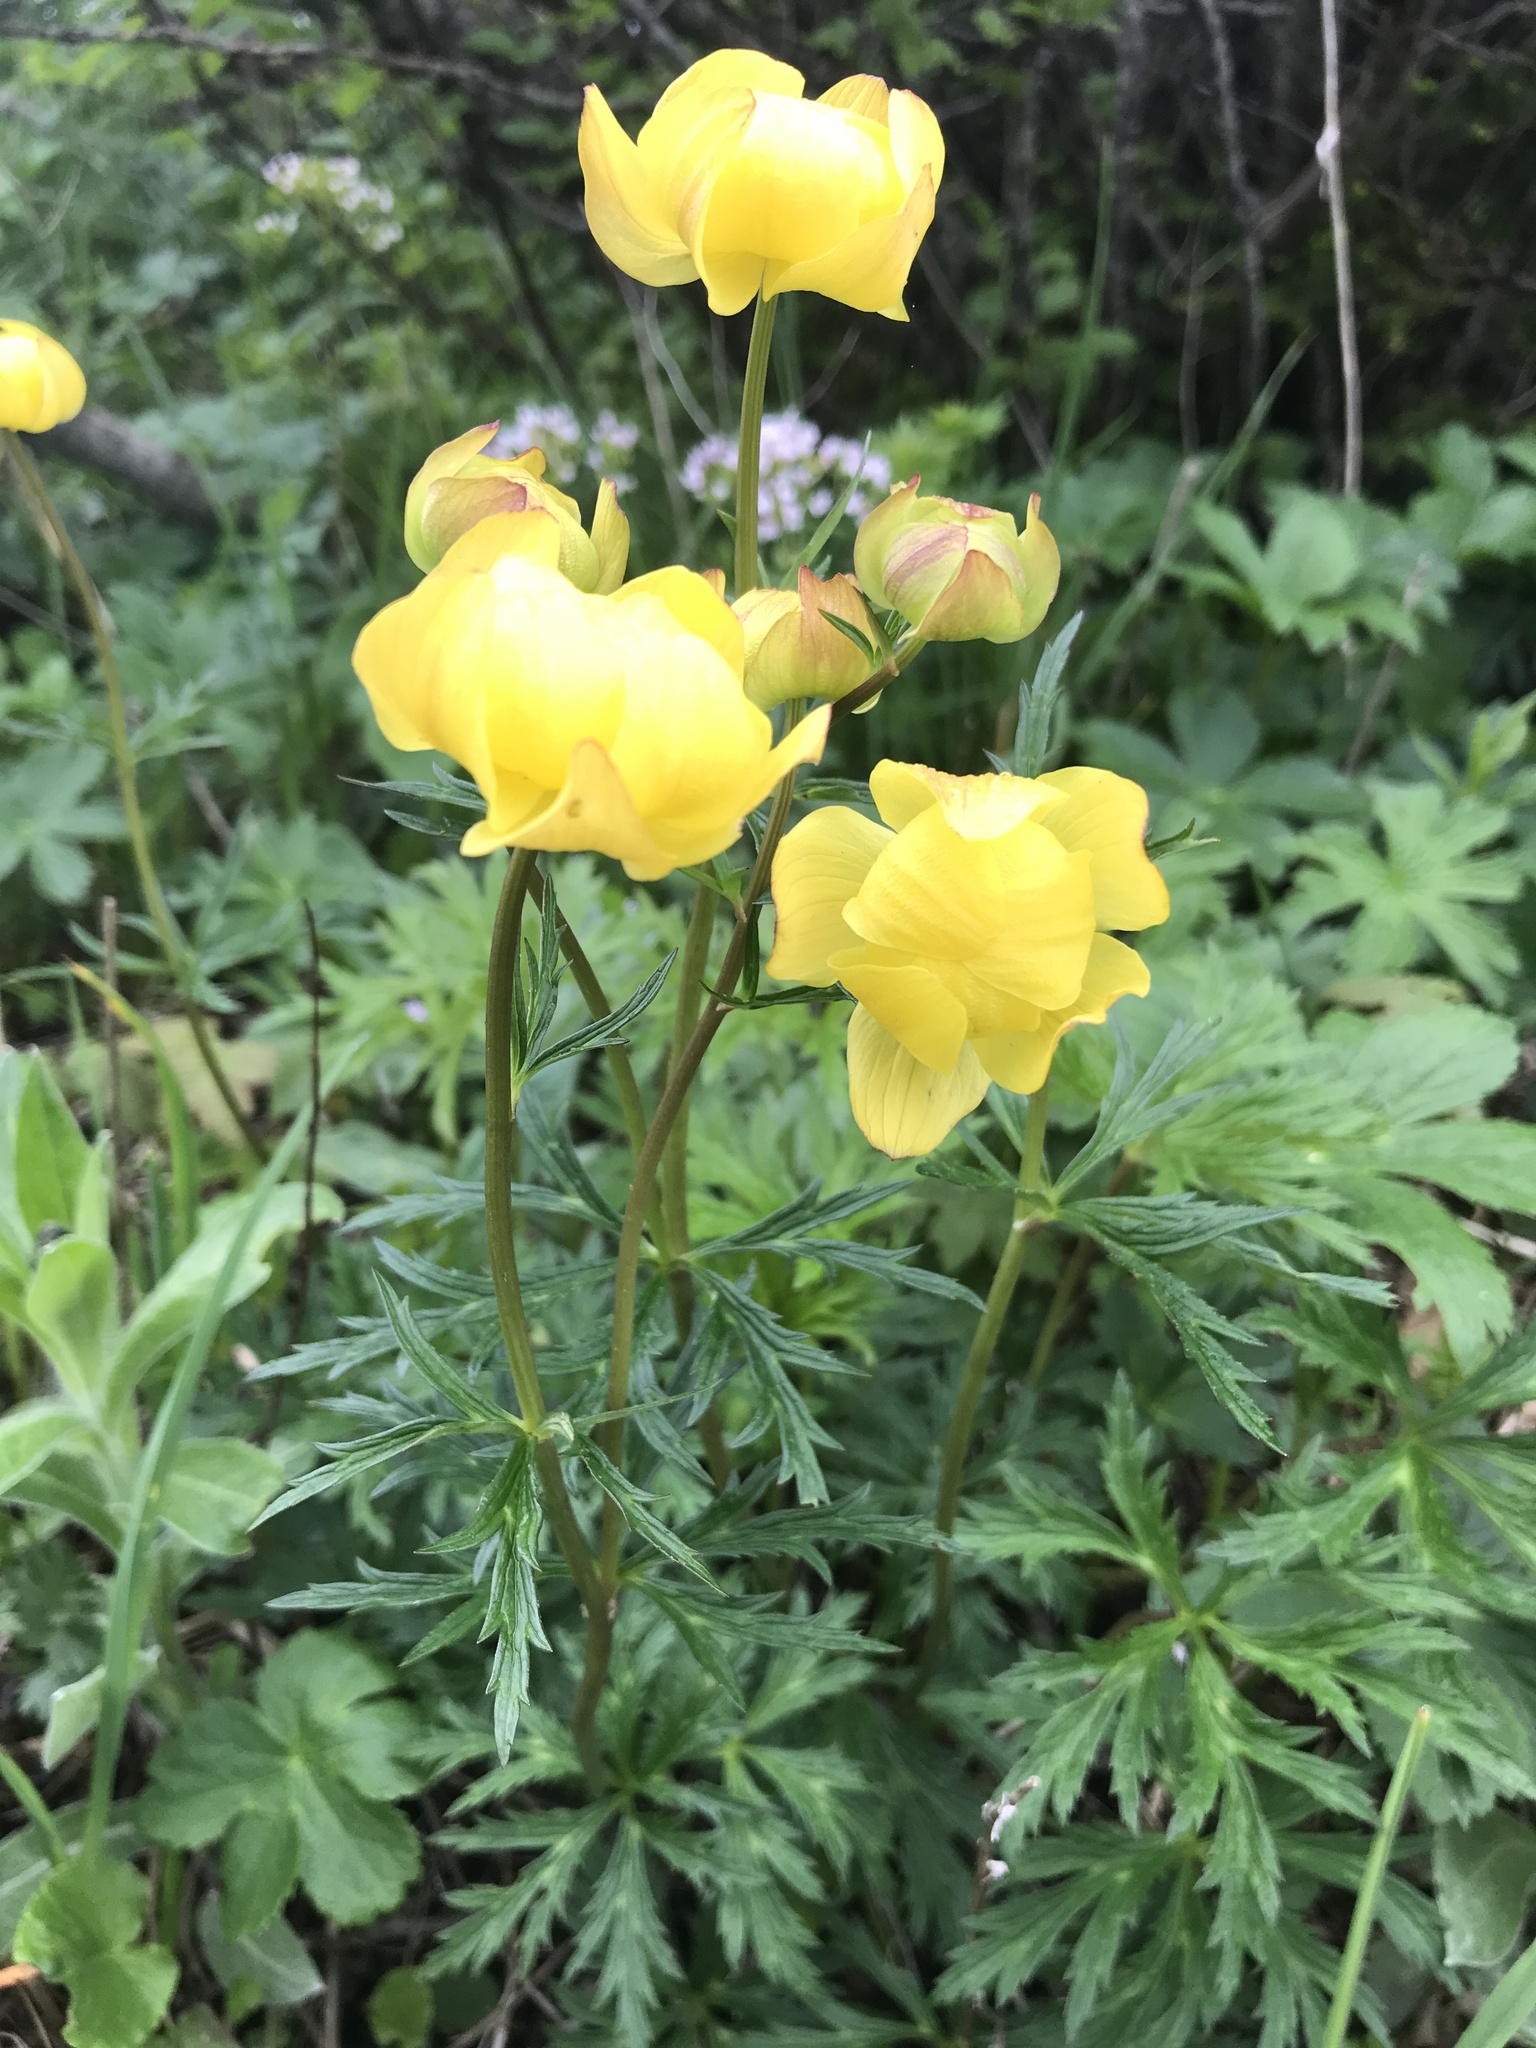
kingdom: Plantae
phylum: Tracheophyta
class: Magnoliopsida
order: Ranunculales
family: Ranunculaceae
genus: Trollius
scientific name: Trollius europaeus
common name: European globeflower
